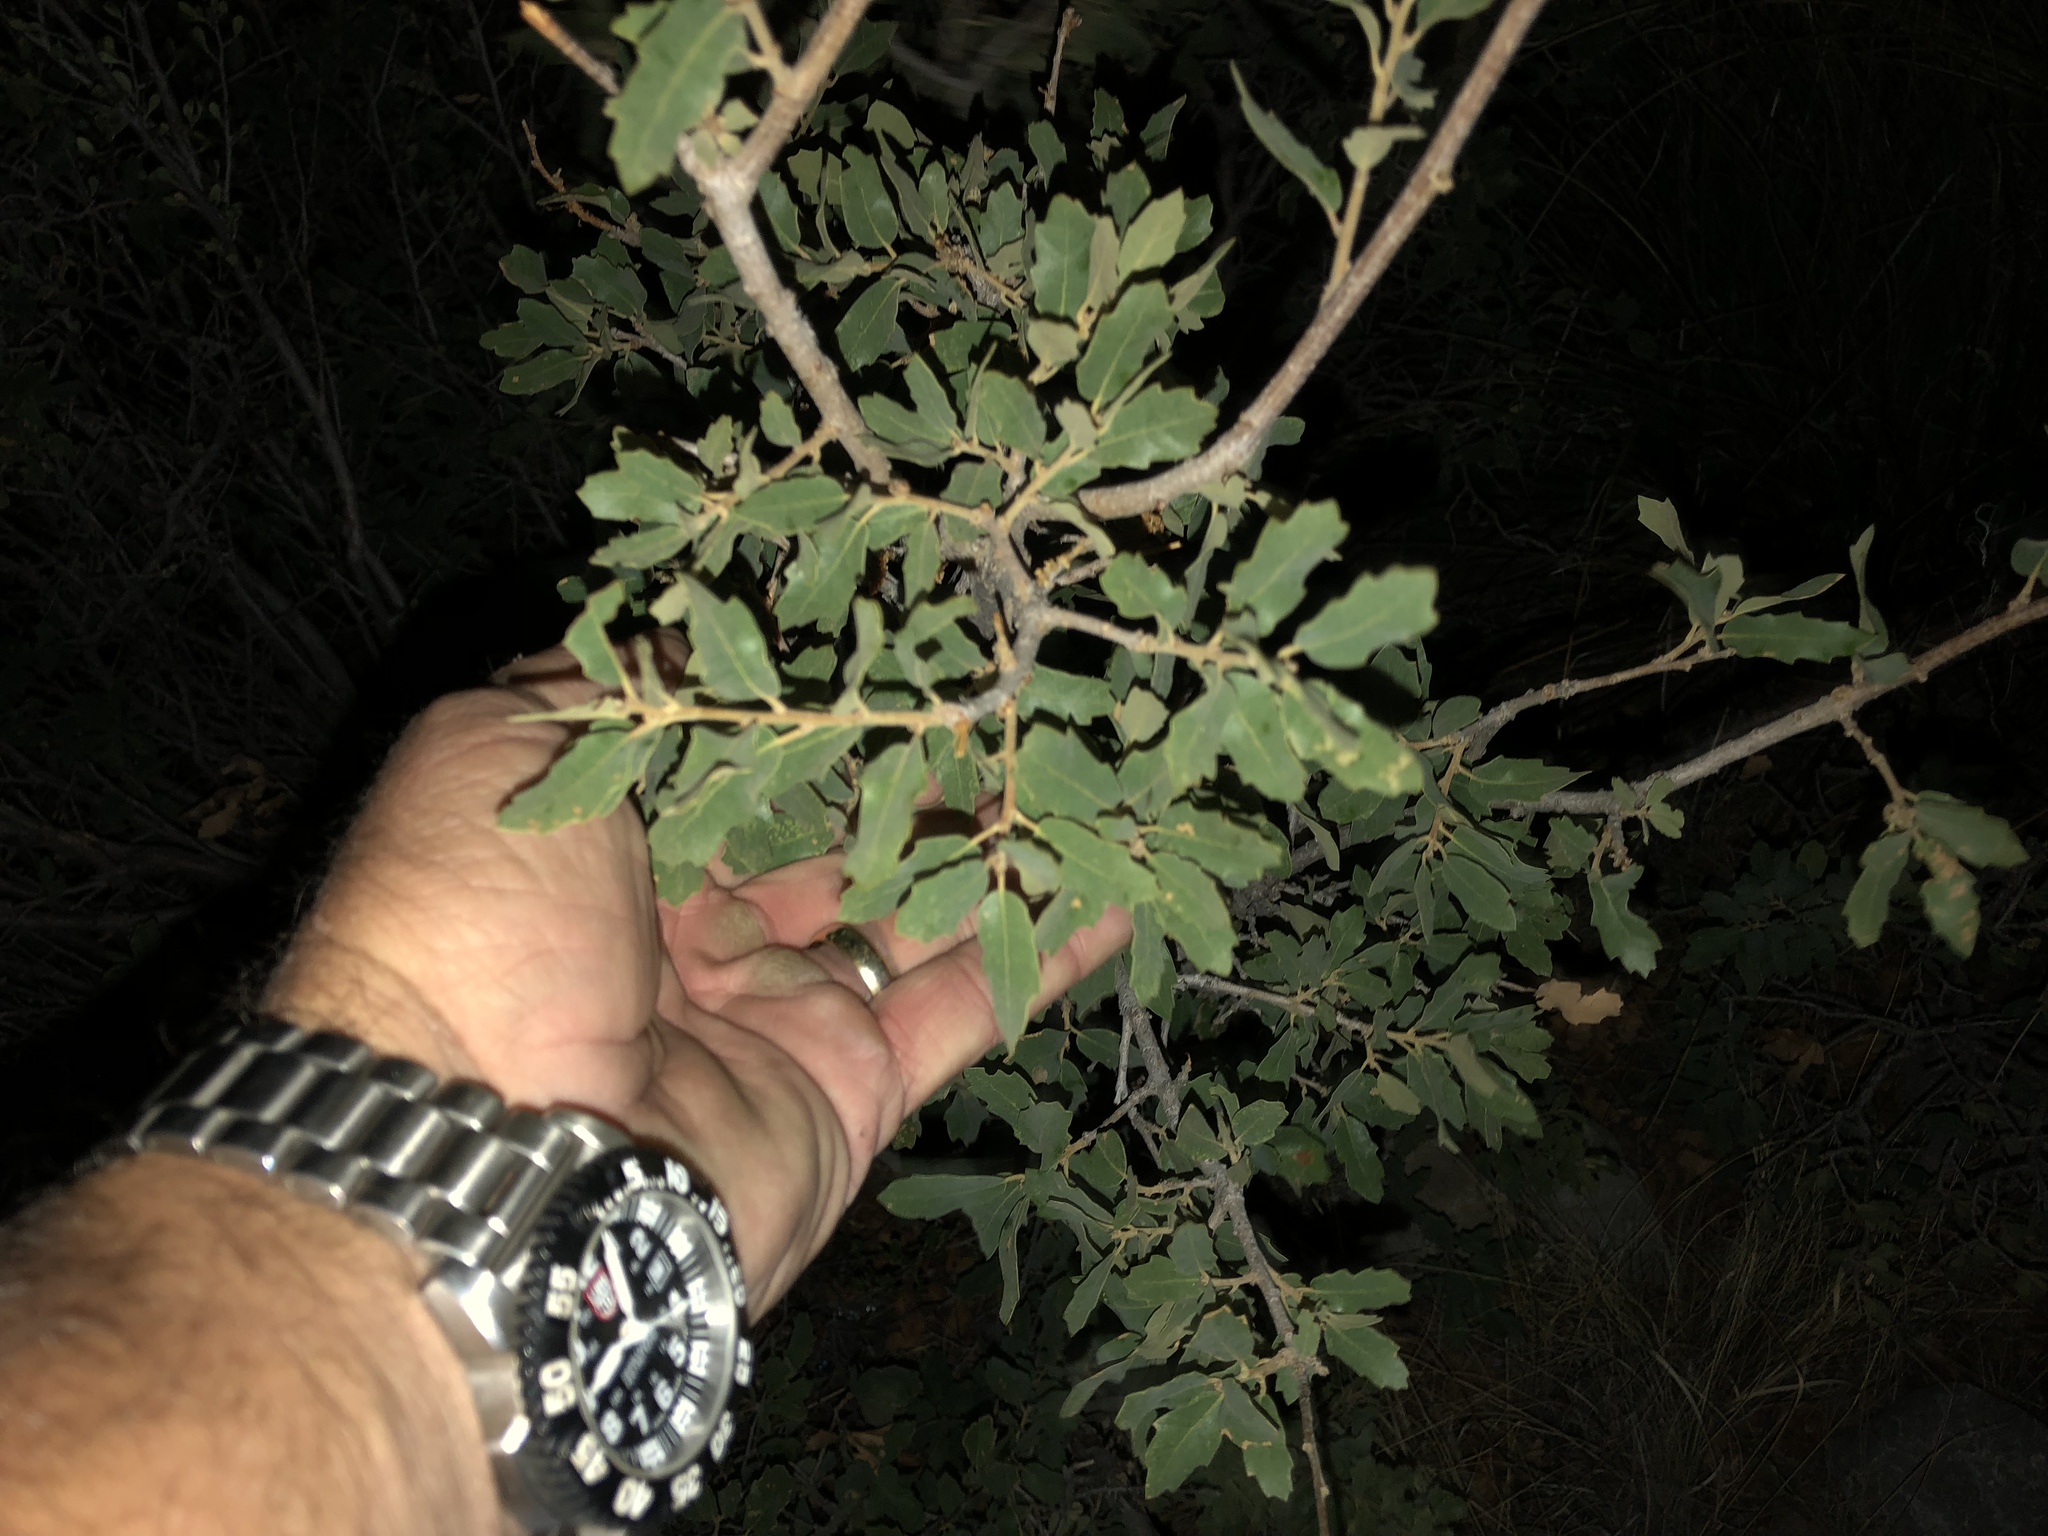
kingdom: Plantae
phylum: Tracheophyta
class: Magnoliopsida
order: Fagales
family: Fagaceae
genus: Quercus
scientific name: Quercus turbinella
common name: Sonoran scrub oak
